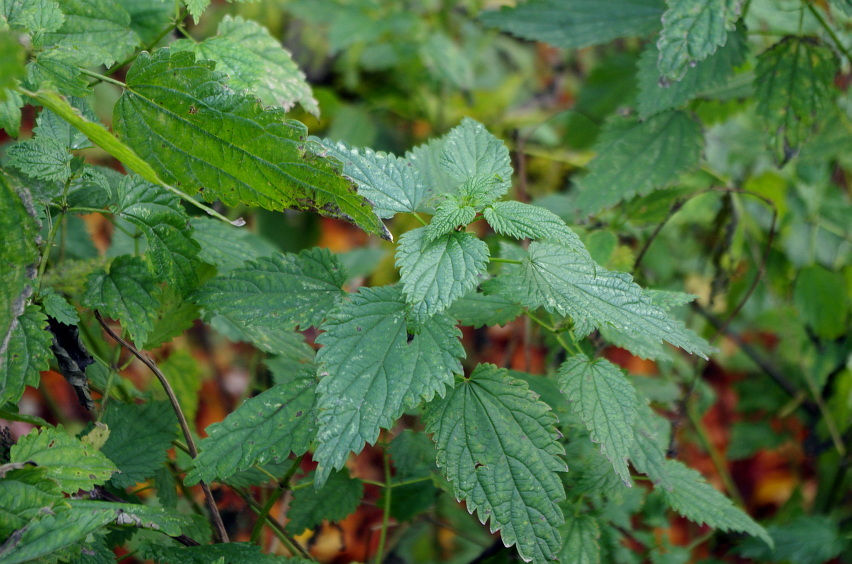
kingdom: Plantae
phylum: Tracheophyta
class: Magnoliopsida
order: Rosales
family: Urticaceae
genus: Urtica
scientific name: Urtica dioica
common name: Common nettle
